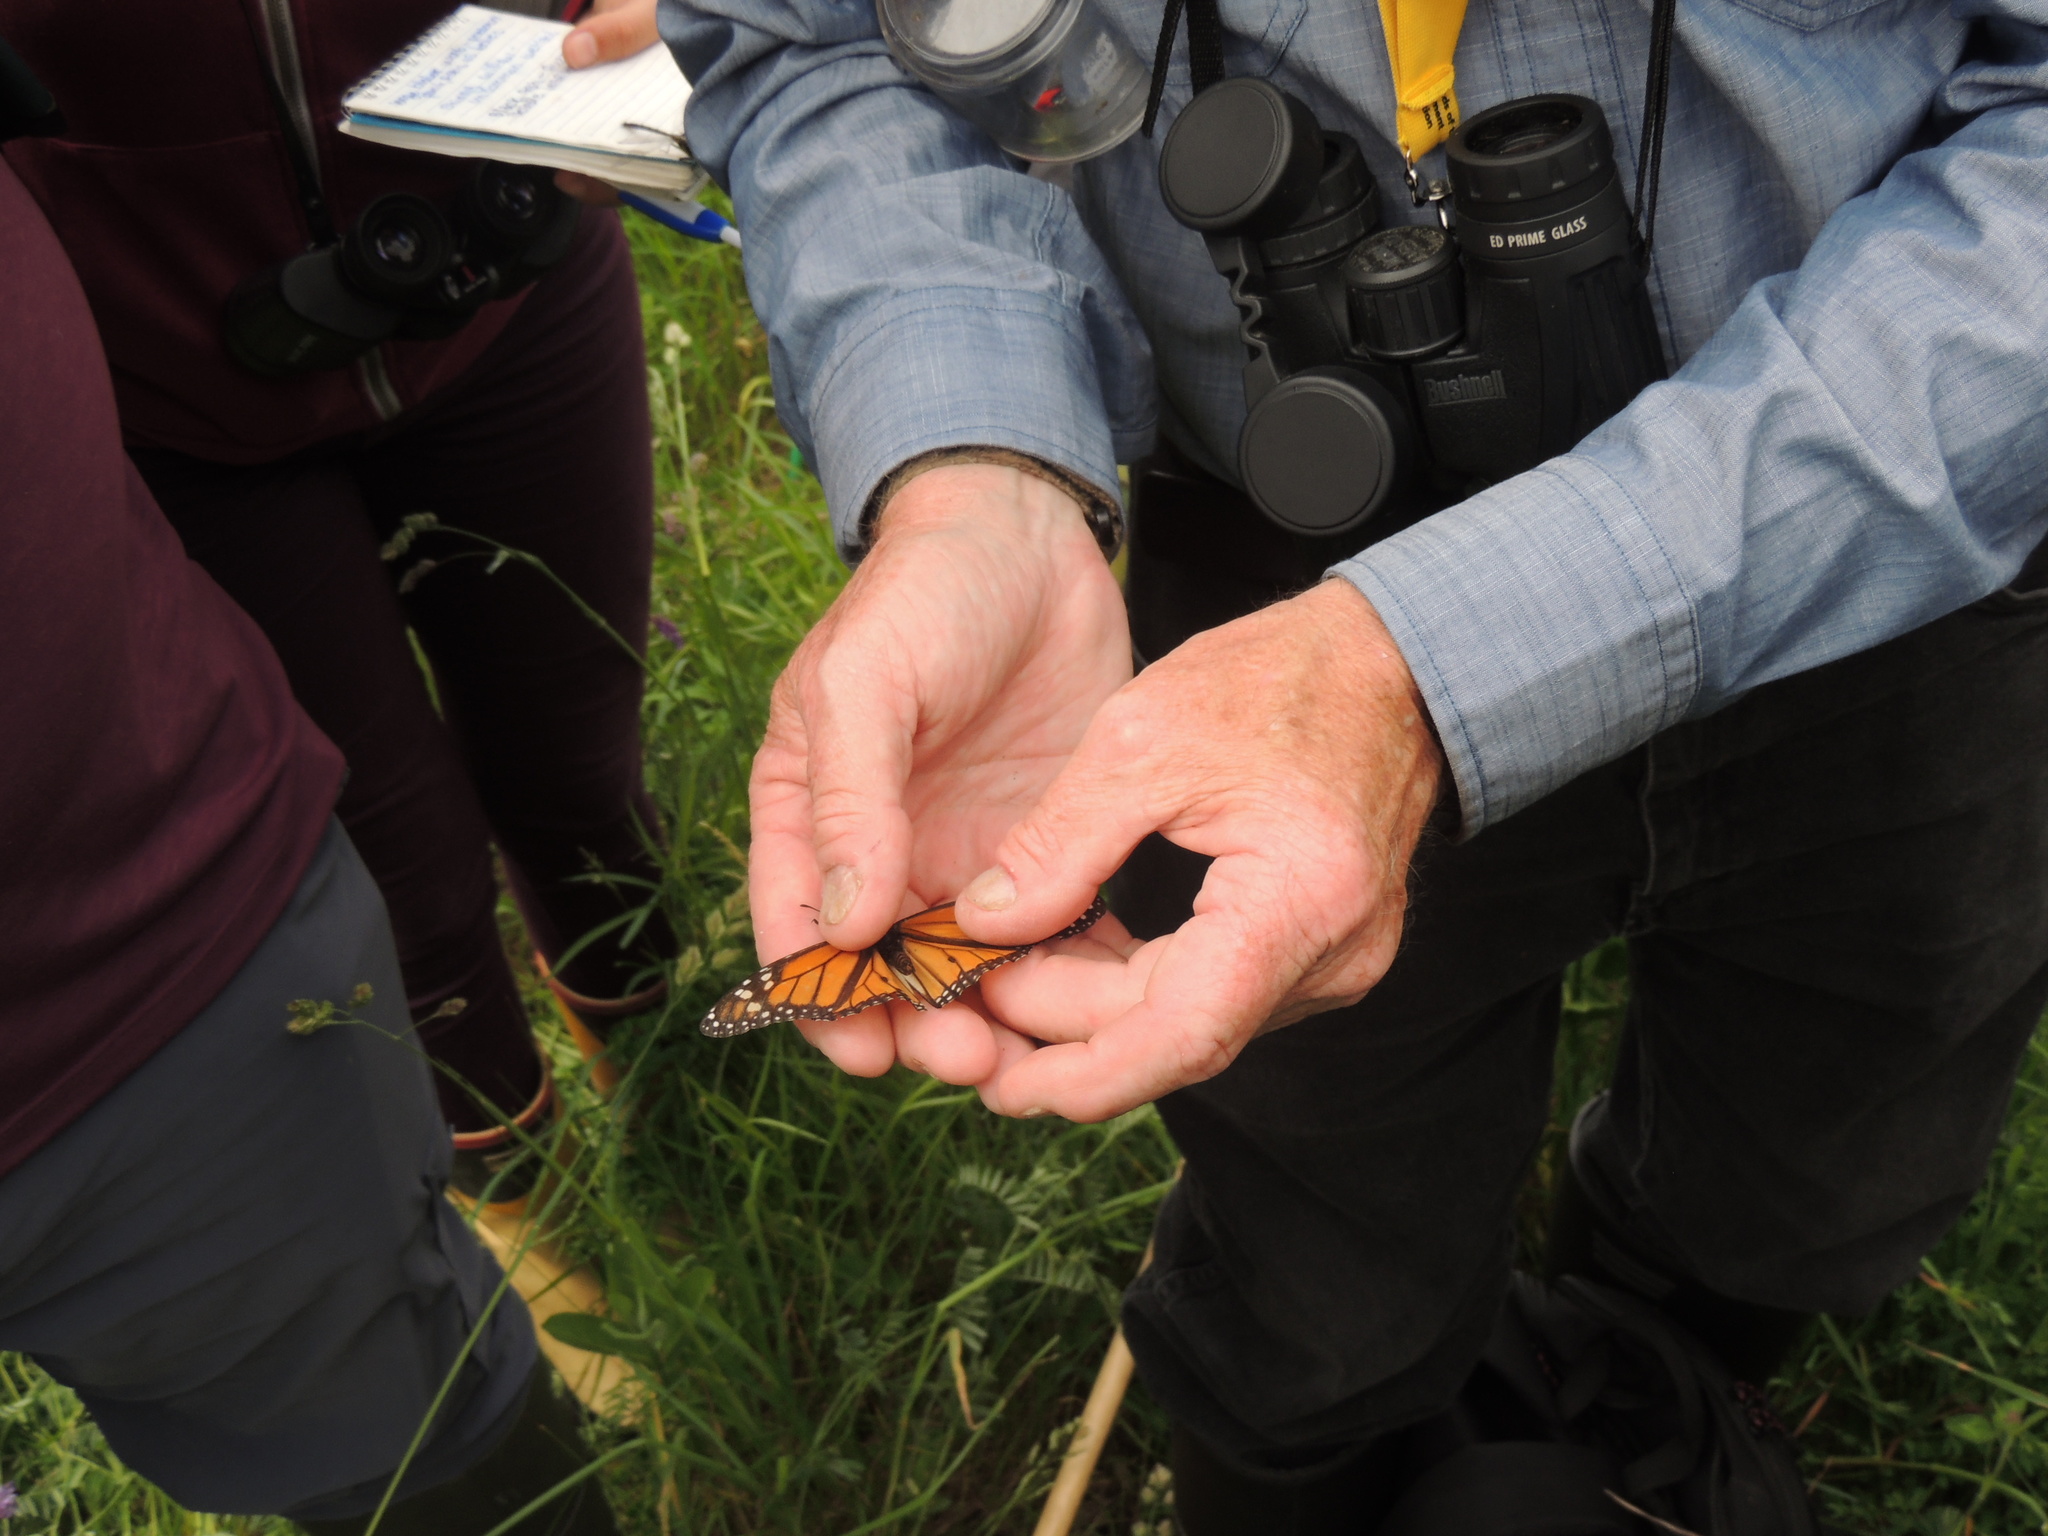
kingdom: Animalia
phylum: Arthropoda
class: Insecta
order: Lepidoptera
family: Nymphalidae
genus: Danaus
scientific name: Danaus plexippus
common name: Monarch
